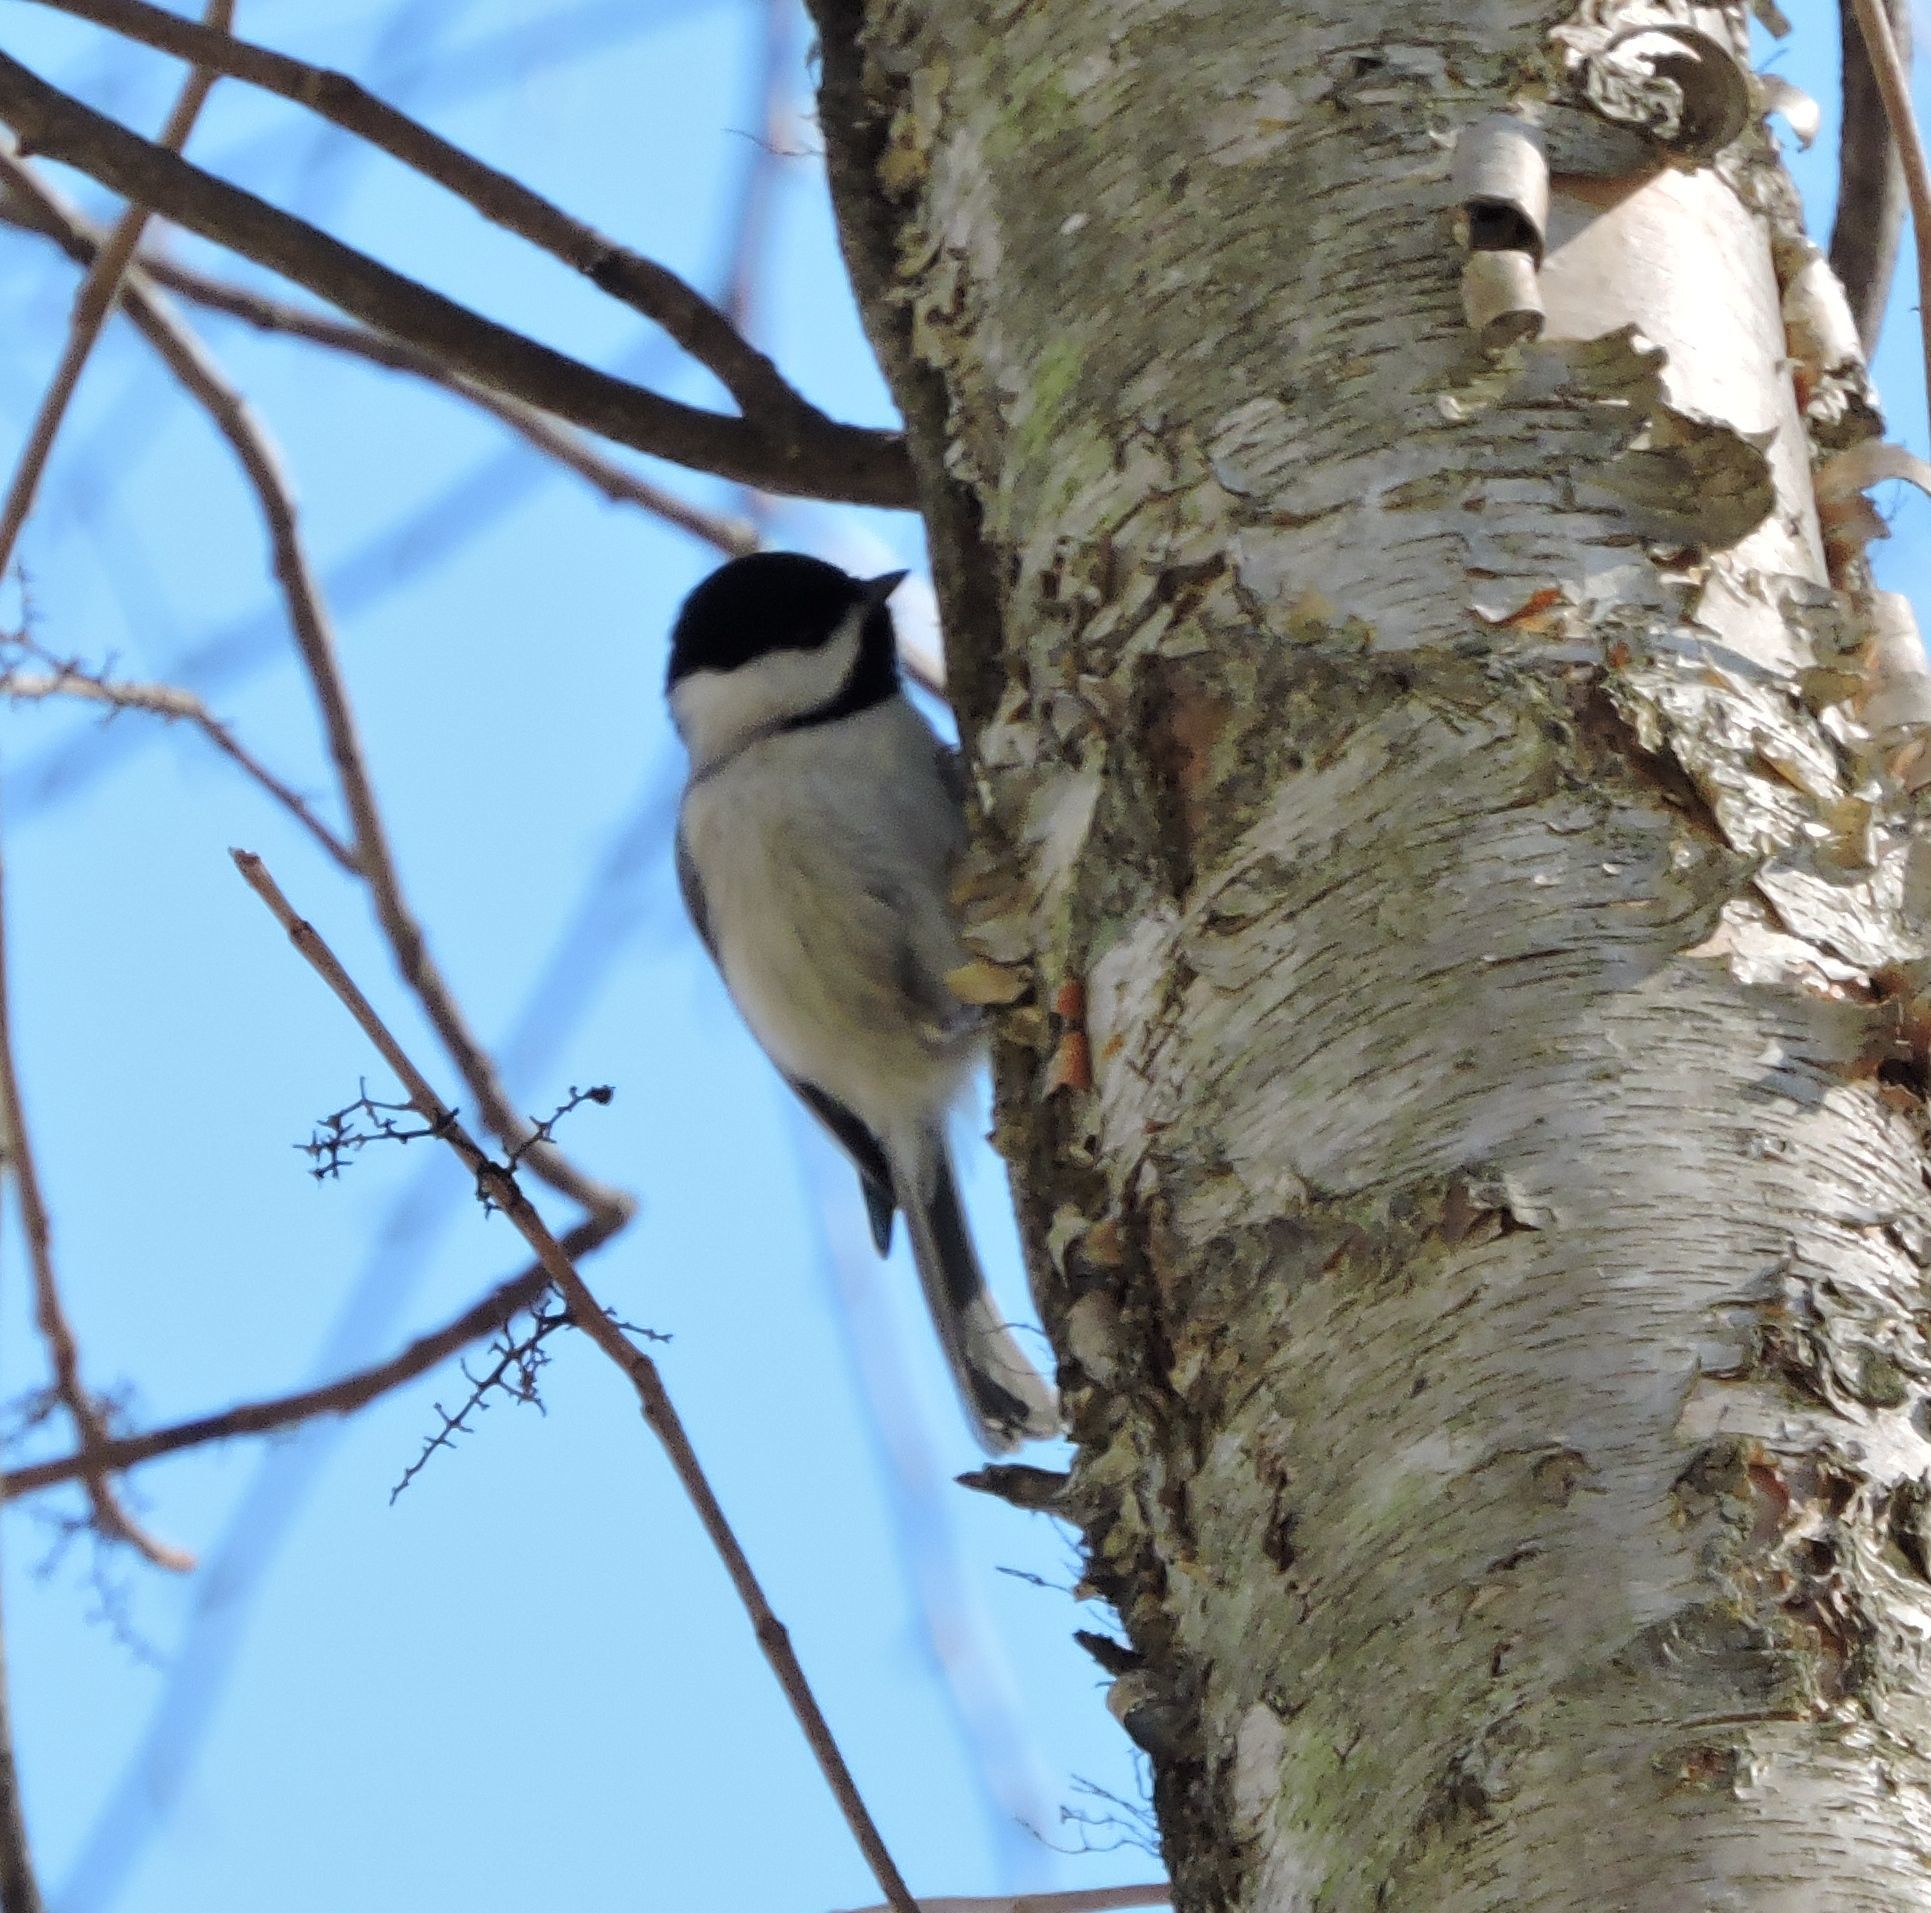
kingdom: Animalia
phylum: Chordata
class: Aves
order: Passeriformes
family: Paridae
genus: Poecile
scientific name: Poecile carolinensis
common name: Carolina chickadee
